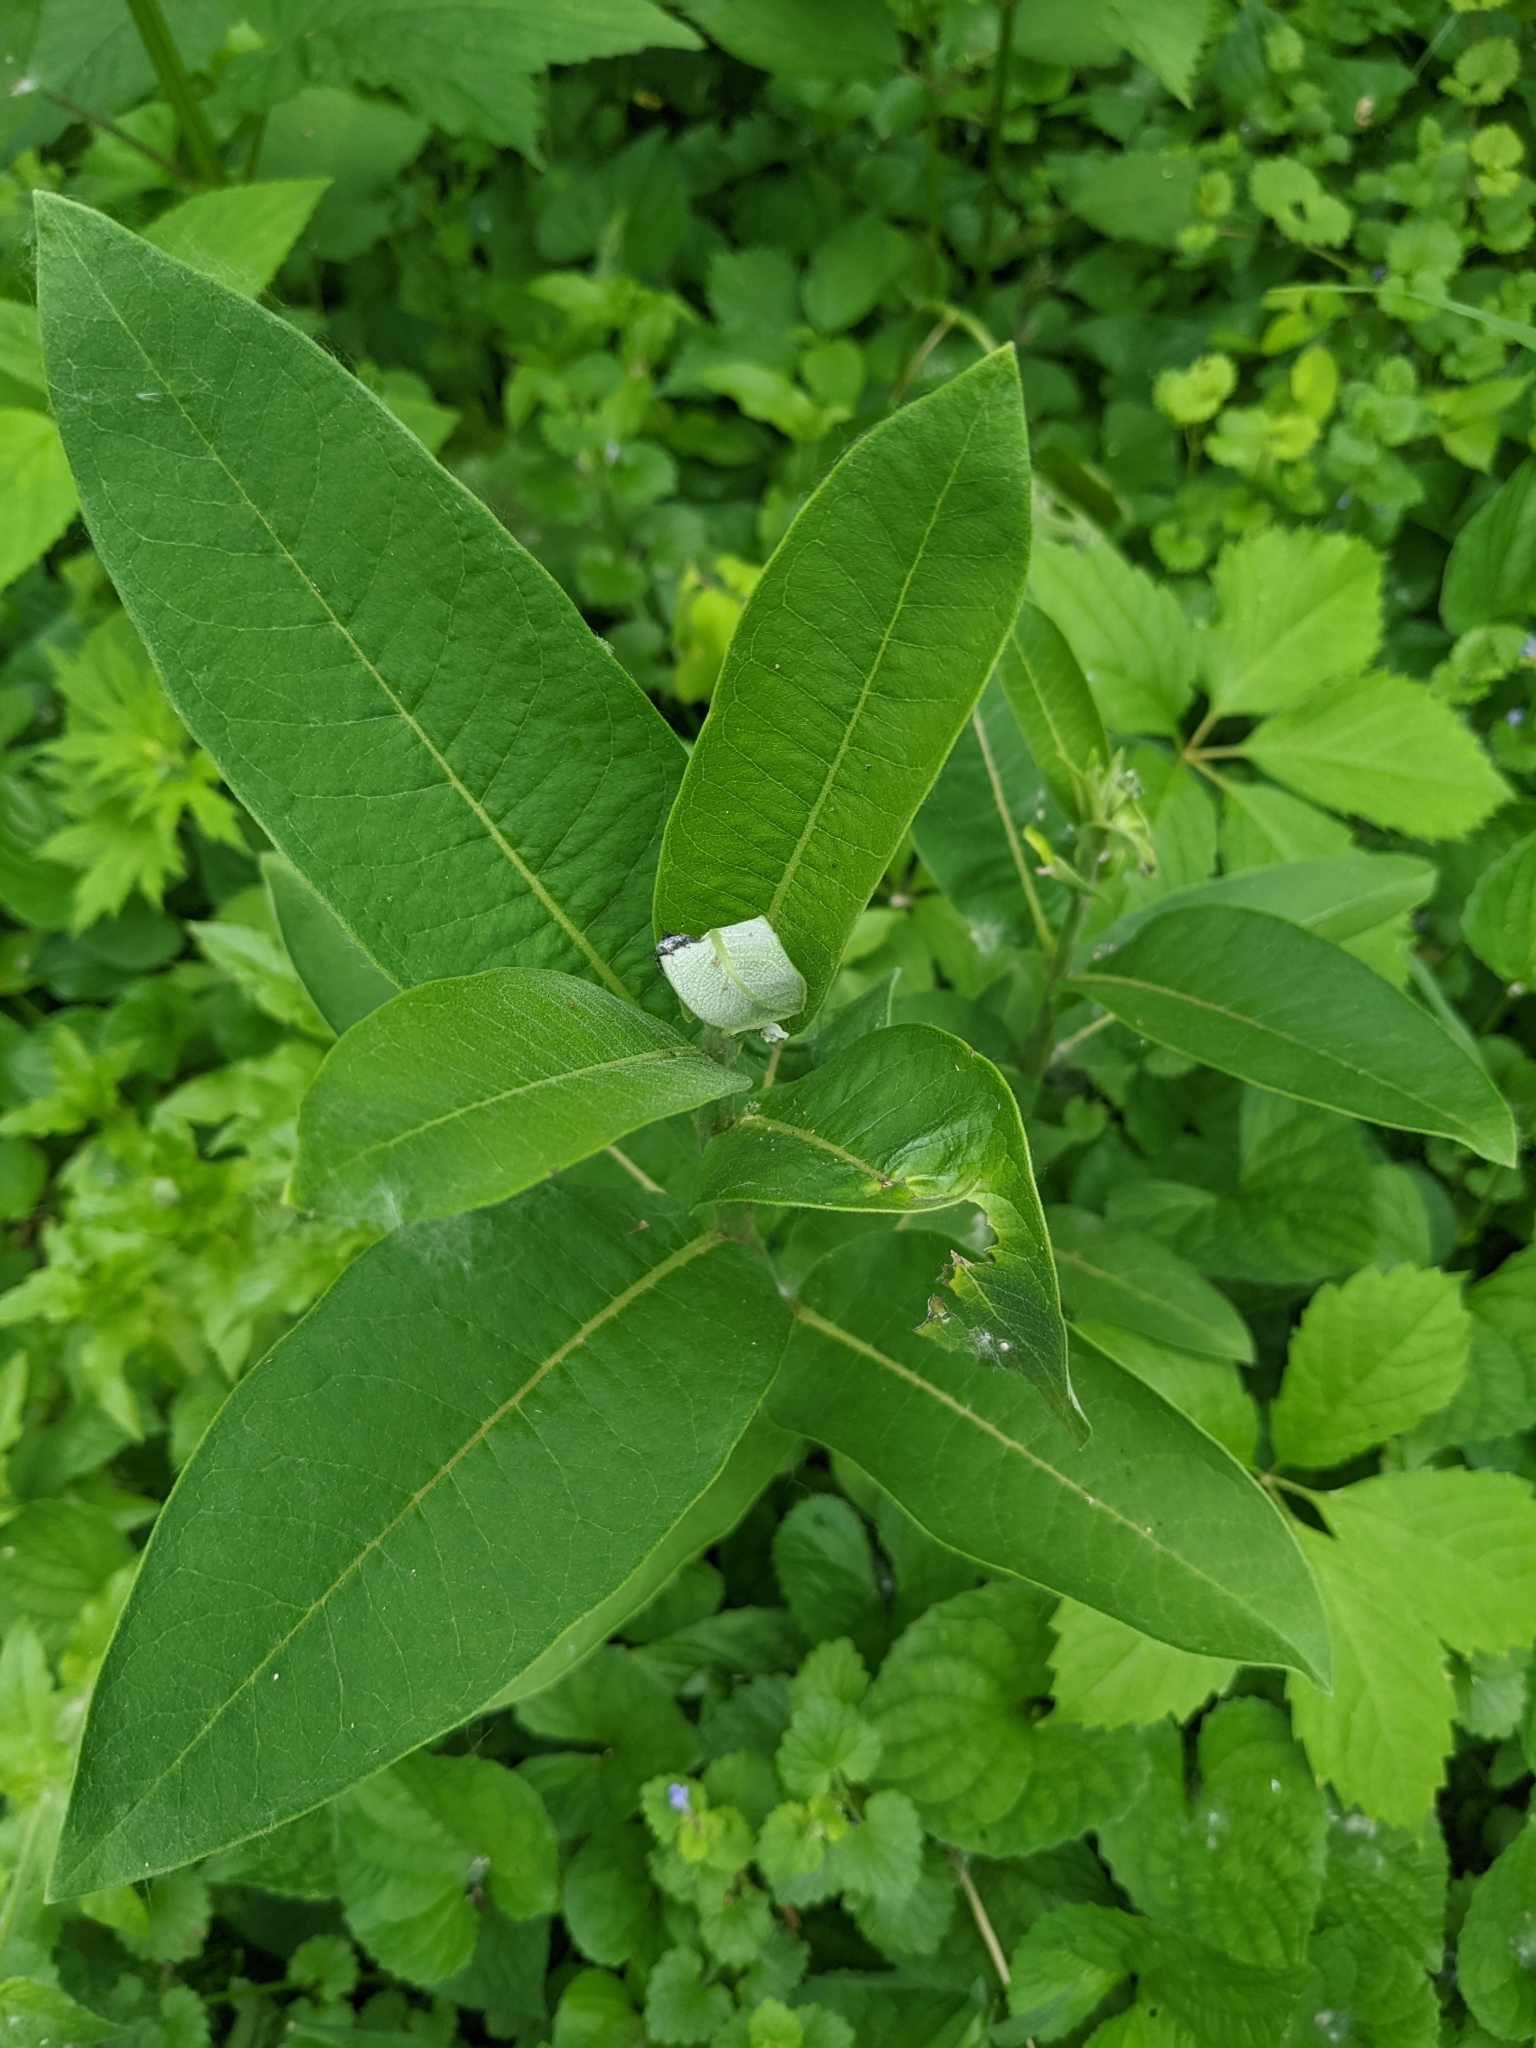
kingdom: Plantae
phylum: Tracheophyta
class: Magnoliopsida
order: Gentianales
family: Apocynaceae
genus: Asclepias
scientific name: Asclepias syriaca
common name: Common milkweed
